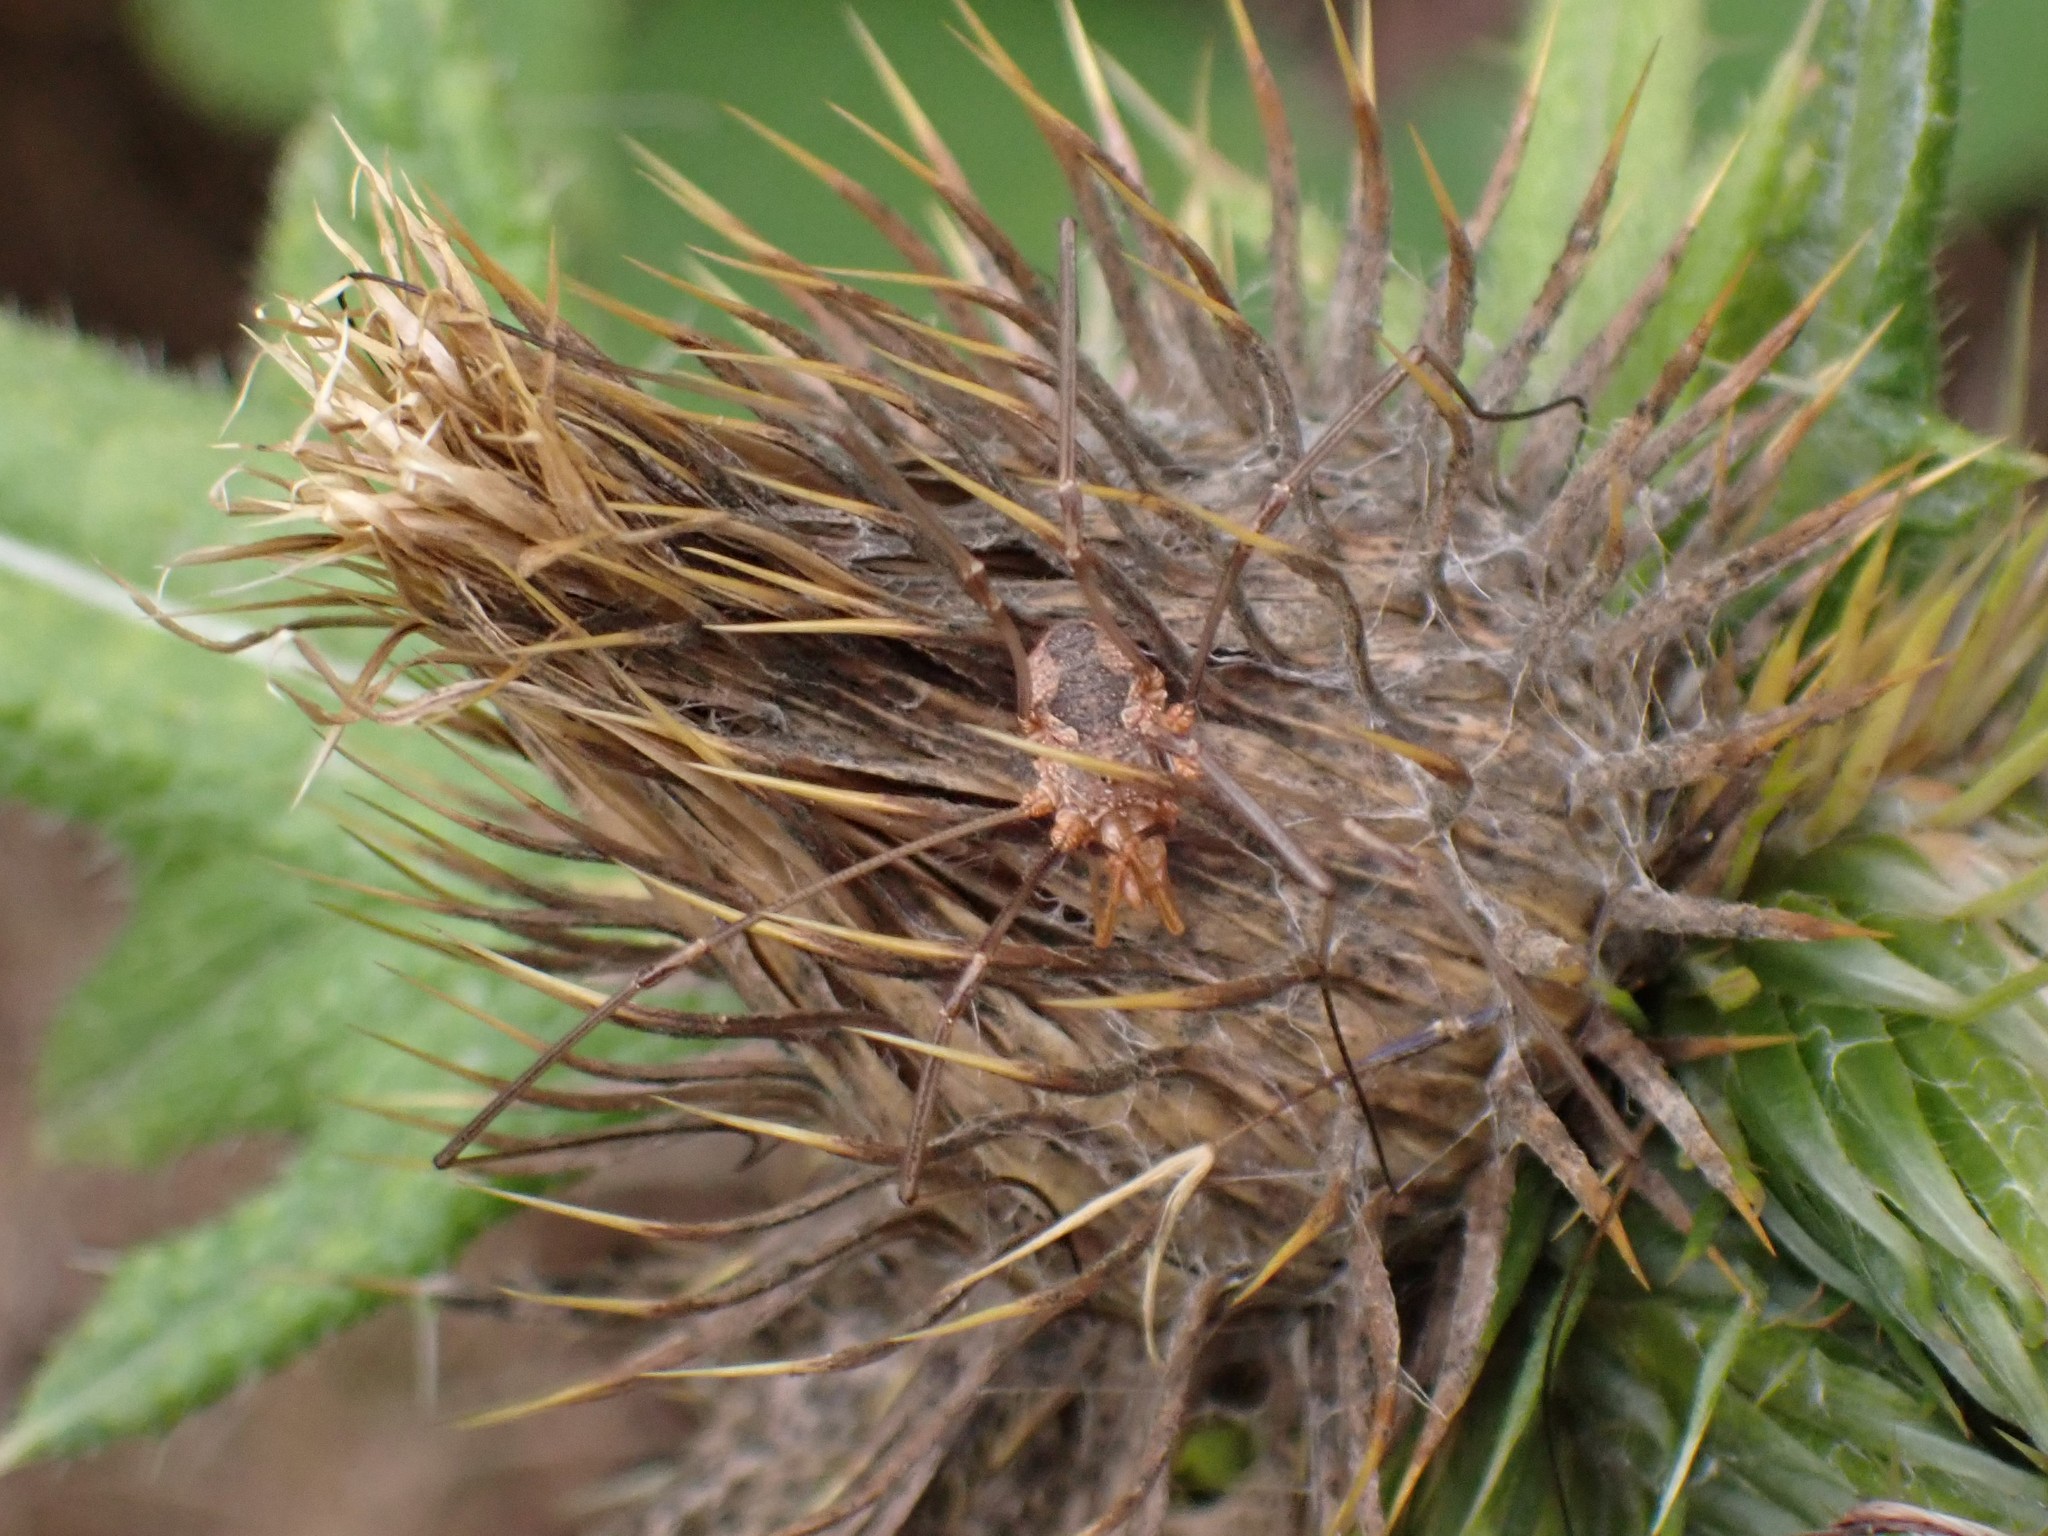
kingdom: Animalia
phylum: Arthropoda
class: Arachnida
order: Opiliones
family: Phalangiidae
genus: Phalangium
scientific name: Phalangium opilio
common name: Daddy longleg
